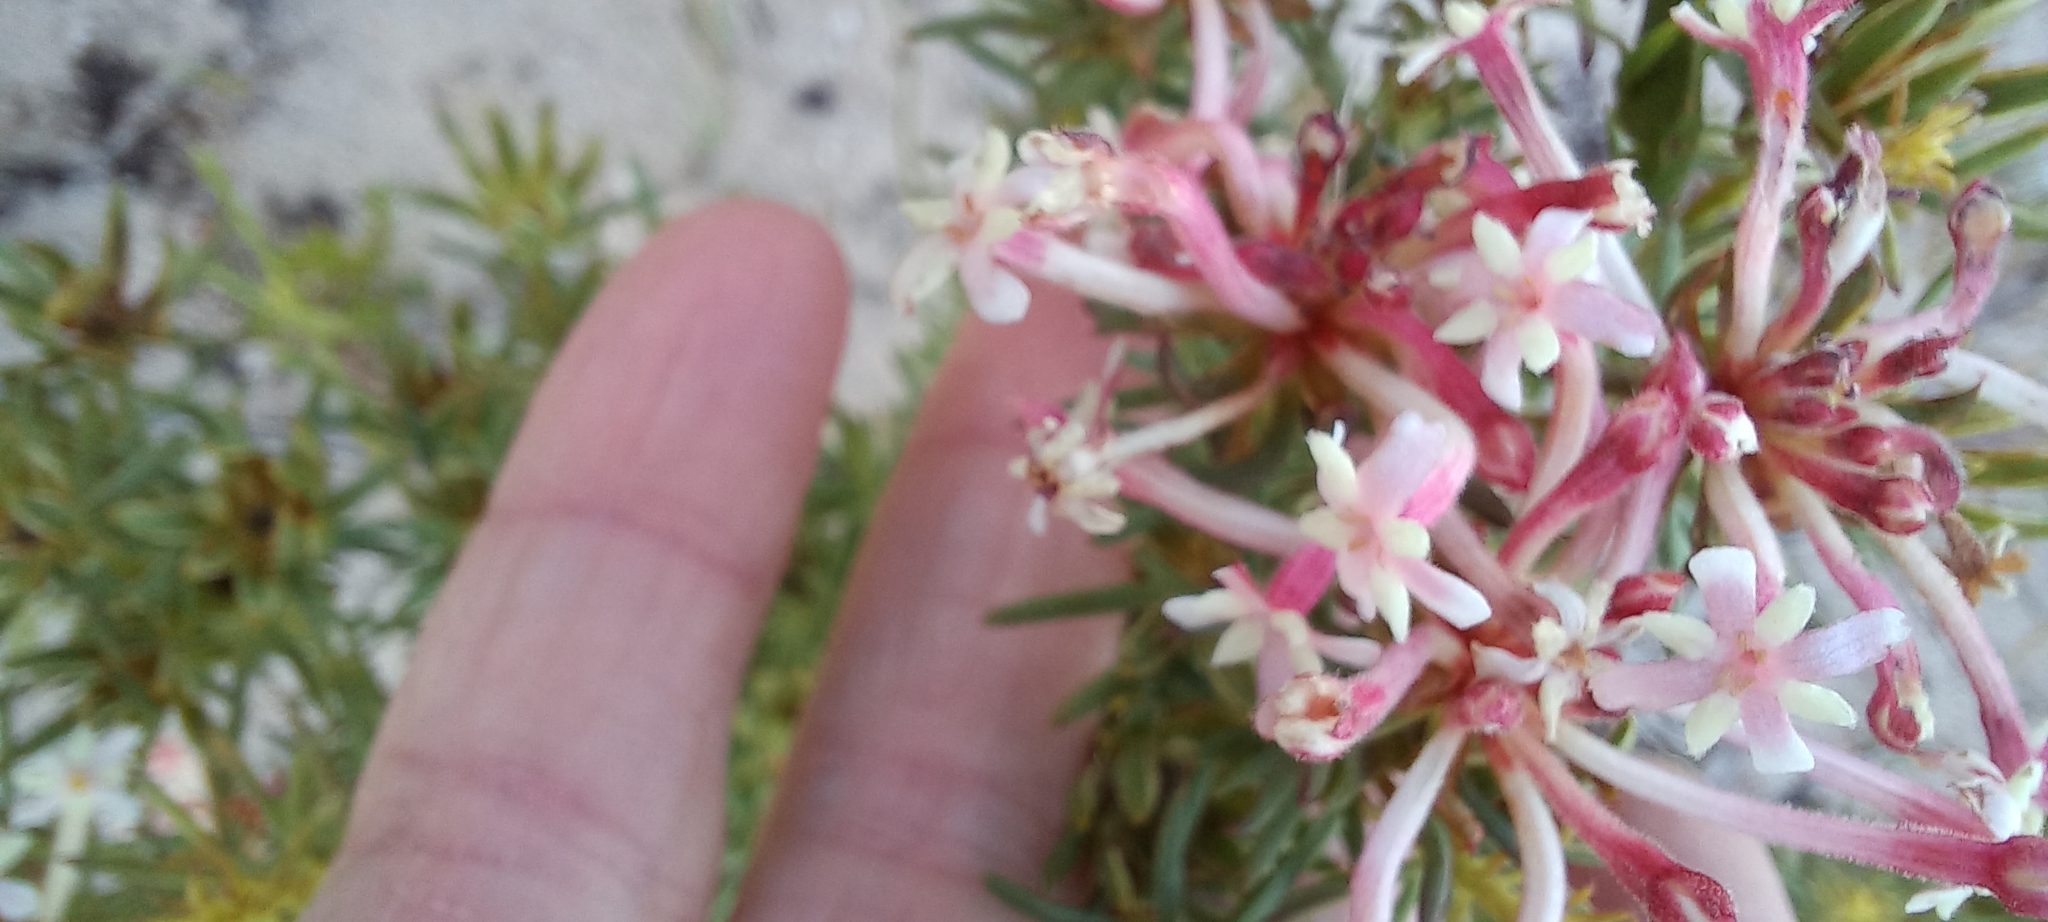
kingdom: Plantae
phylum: Tracheophyta
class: Magnoliopsida
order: Malvales
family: Thymelaeaceae
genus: Gnidia
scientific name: Gnidia pinifolia
